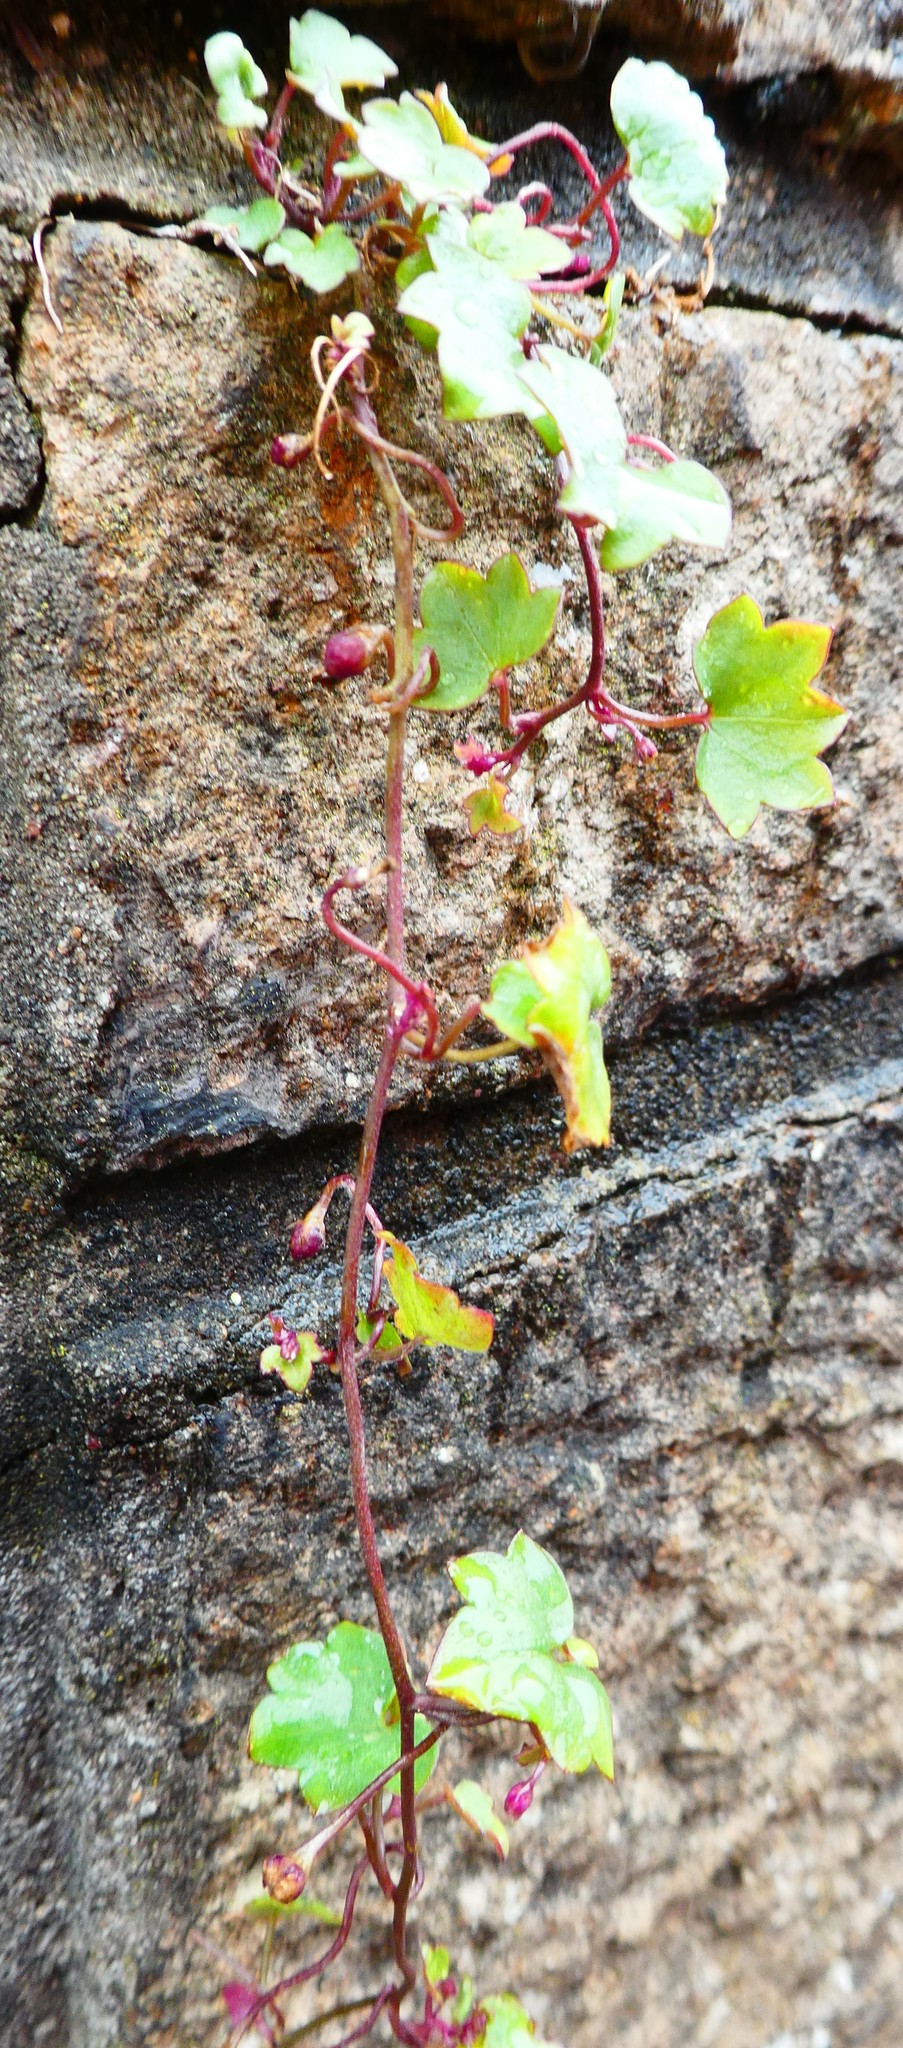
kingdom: Plantae
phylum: Tracheophyta
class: Magnoliopsida
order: Lamiales
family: Plantaginaceae
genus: Cymbalaria
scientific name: Cymbalaria muralis
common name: Ivy-leaved toadflax
